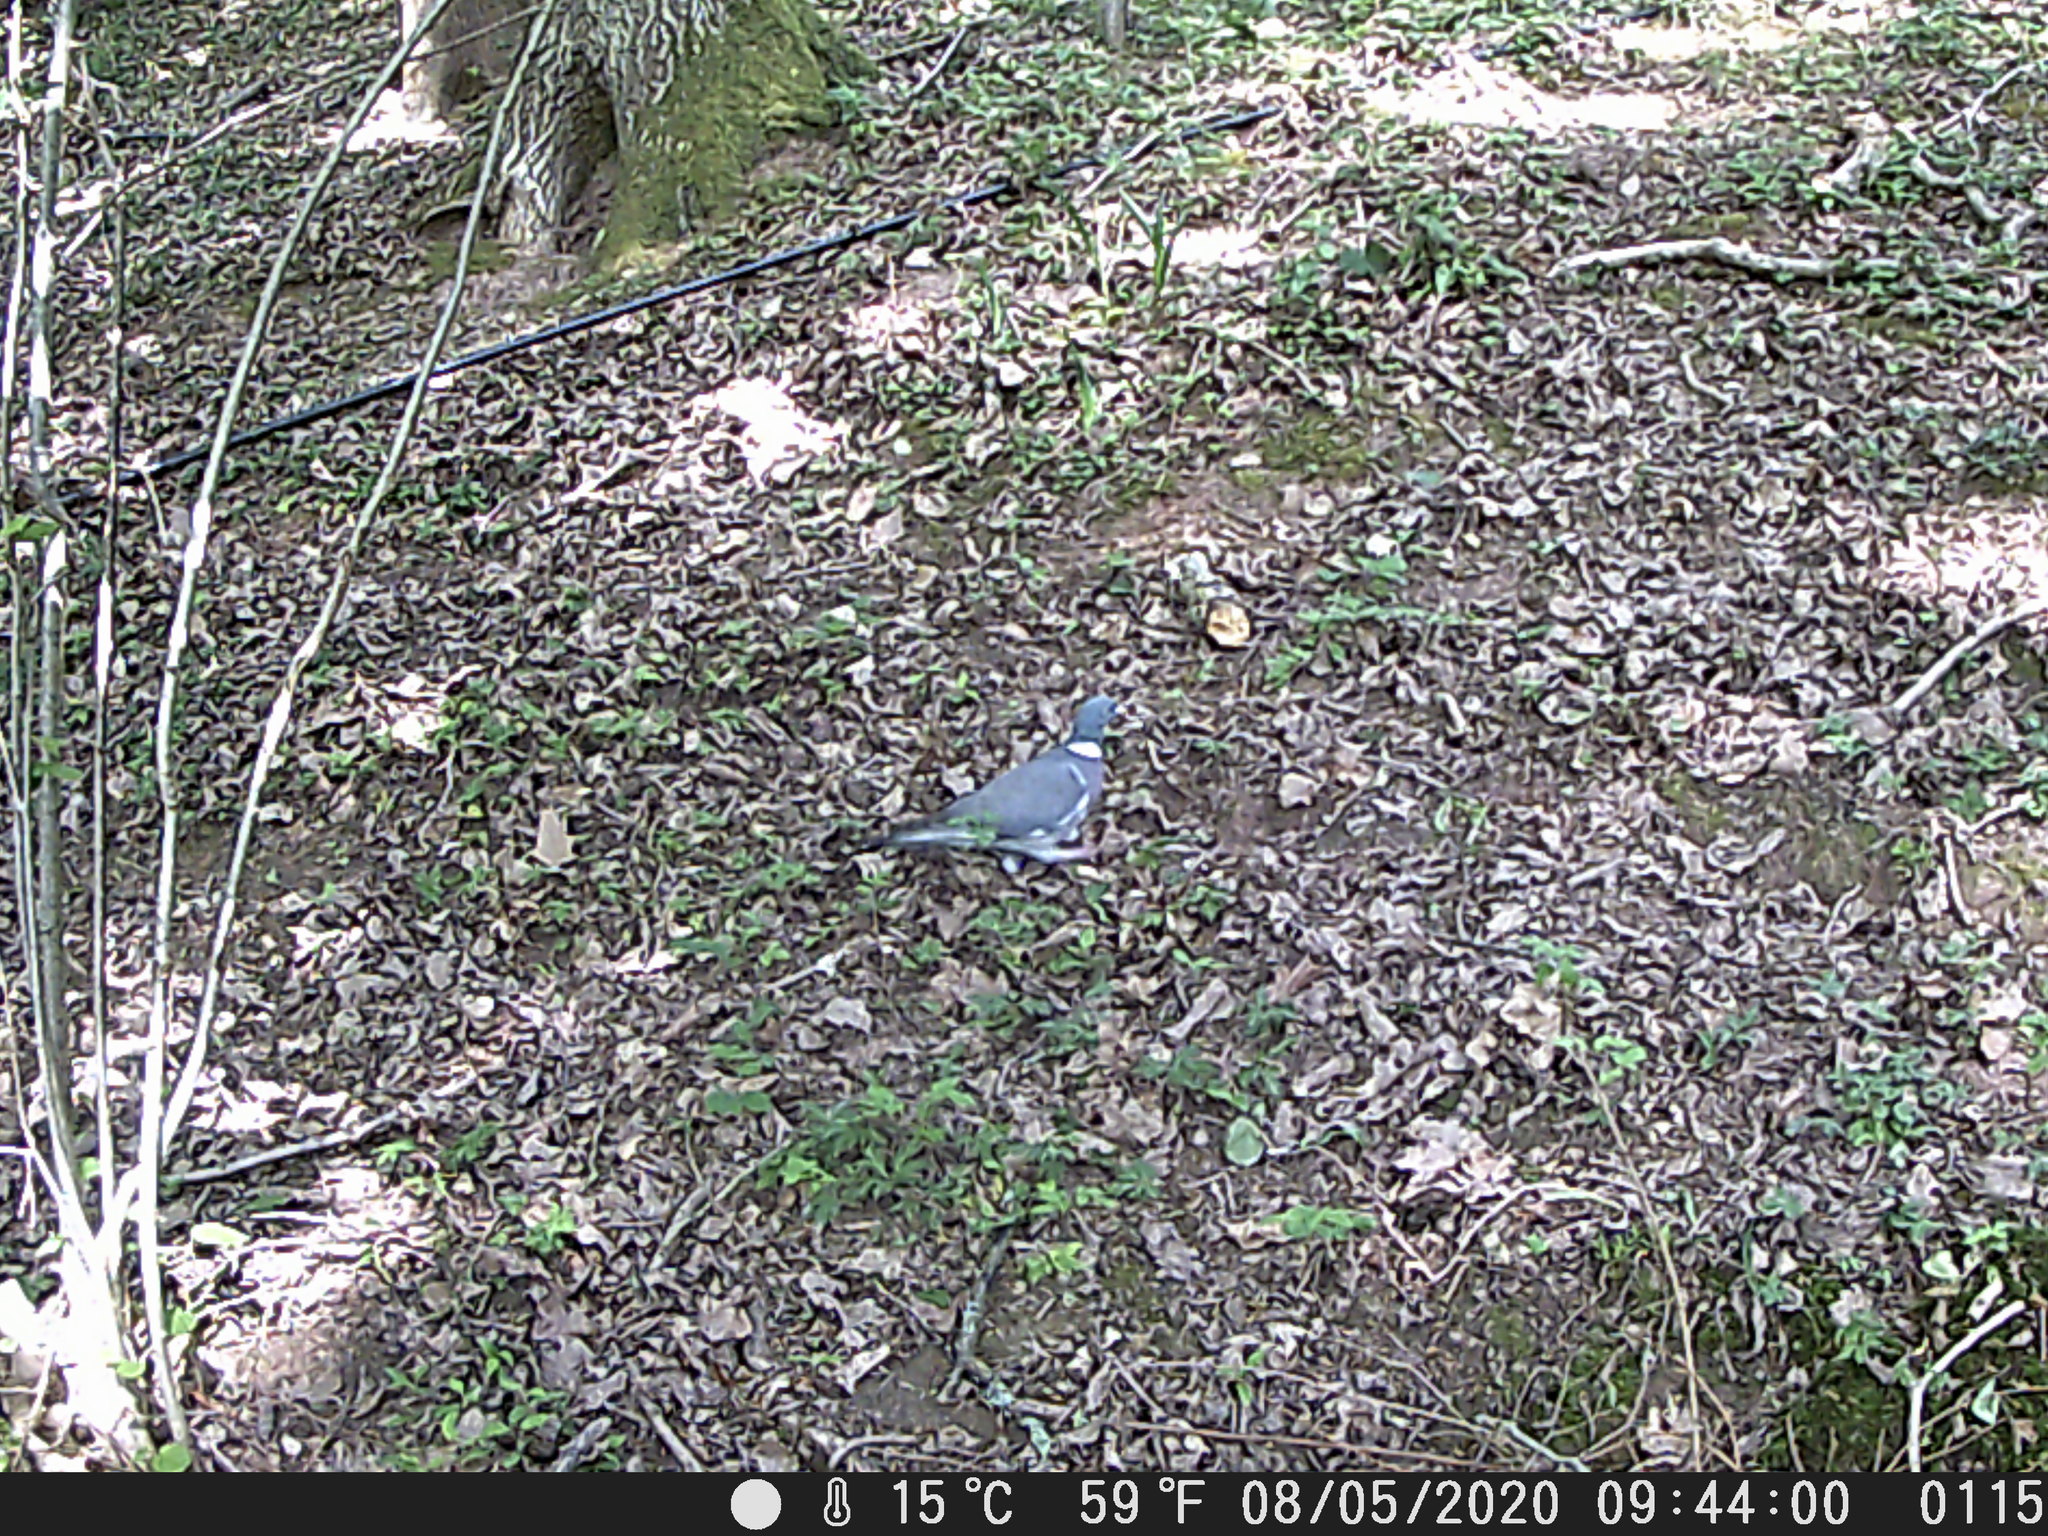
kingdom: Animalia
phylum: Chordata
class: Aves
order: Columbiformes
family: Columbidae
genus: Columba
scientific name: Columba palumbus
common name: Common wood pigeon
